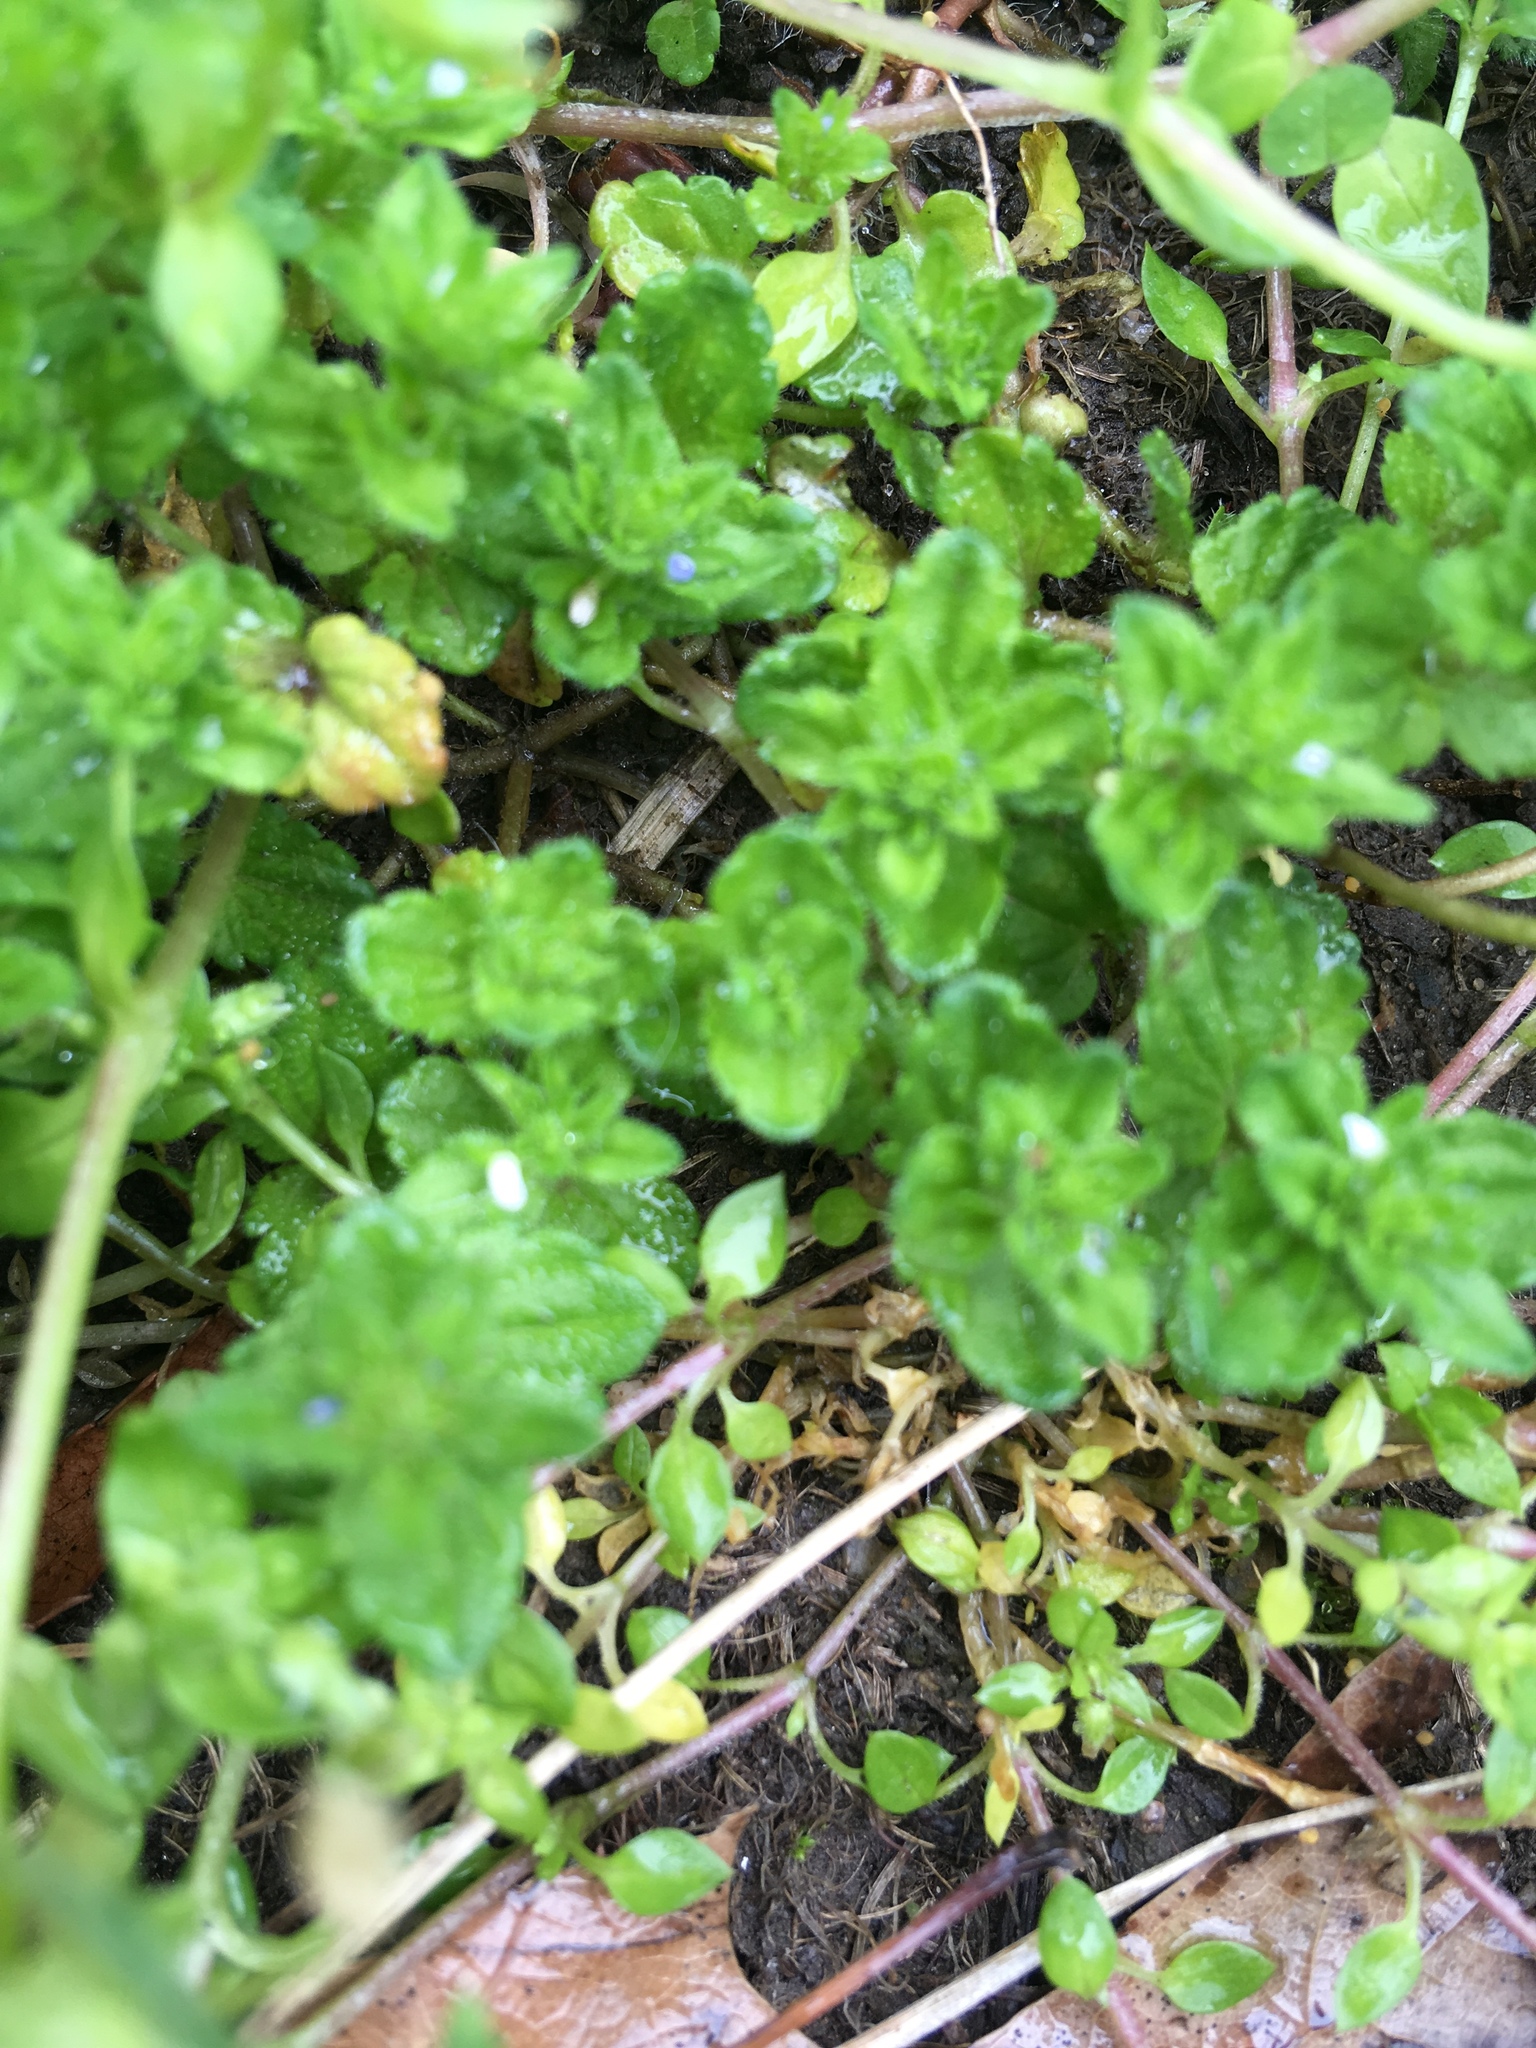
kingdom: Plantae
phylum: Tracheophyta
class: Magnoliopsida
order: Lamiales
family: Plantaginaceae
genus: Veronica
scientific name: Veronica arvensis
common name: Corn speedwell
